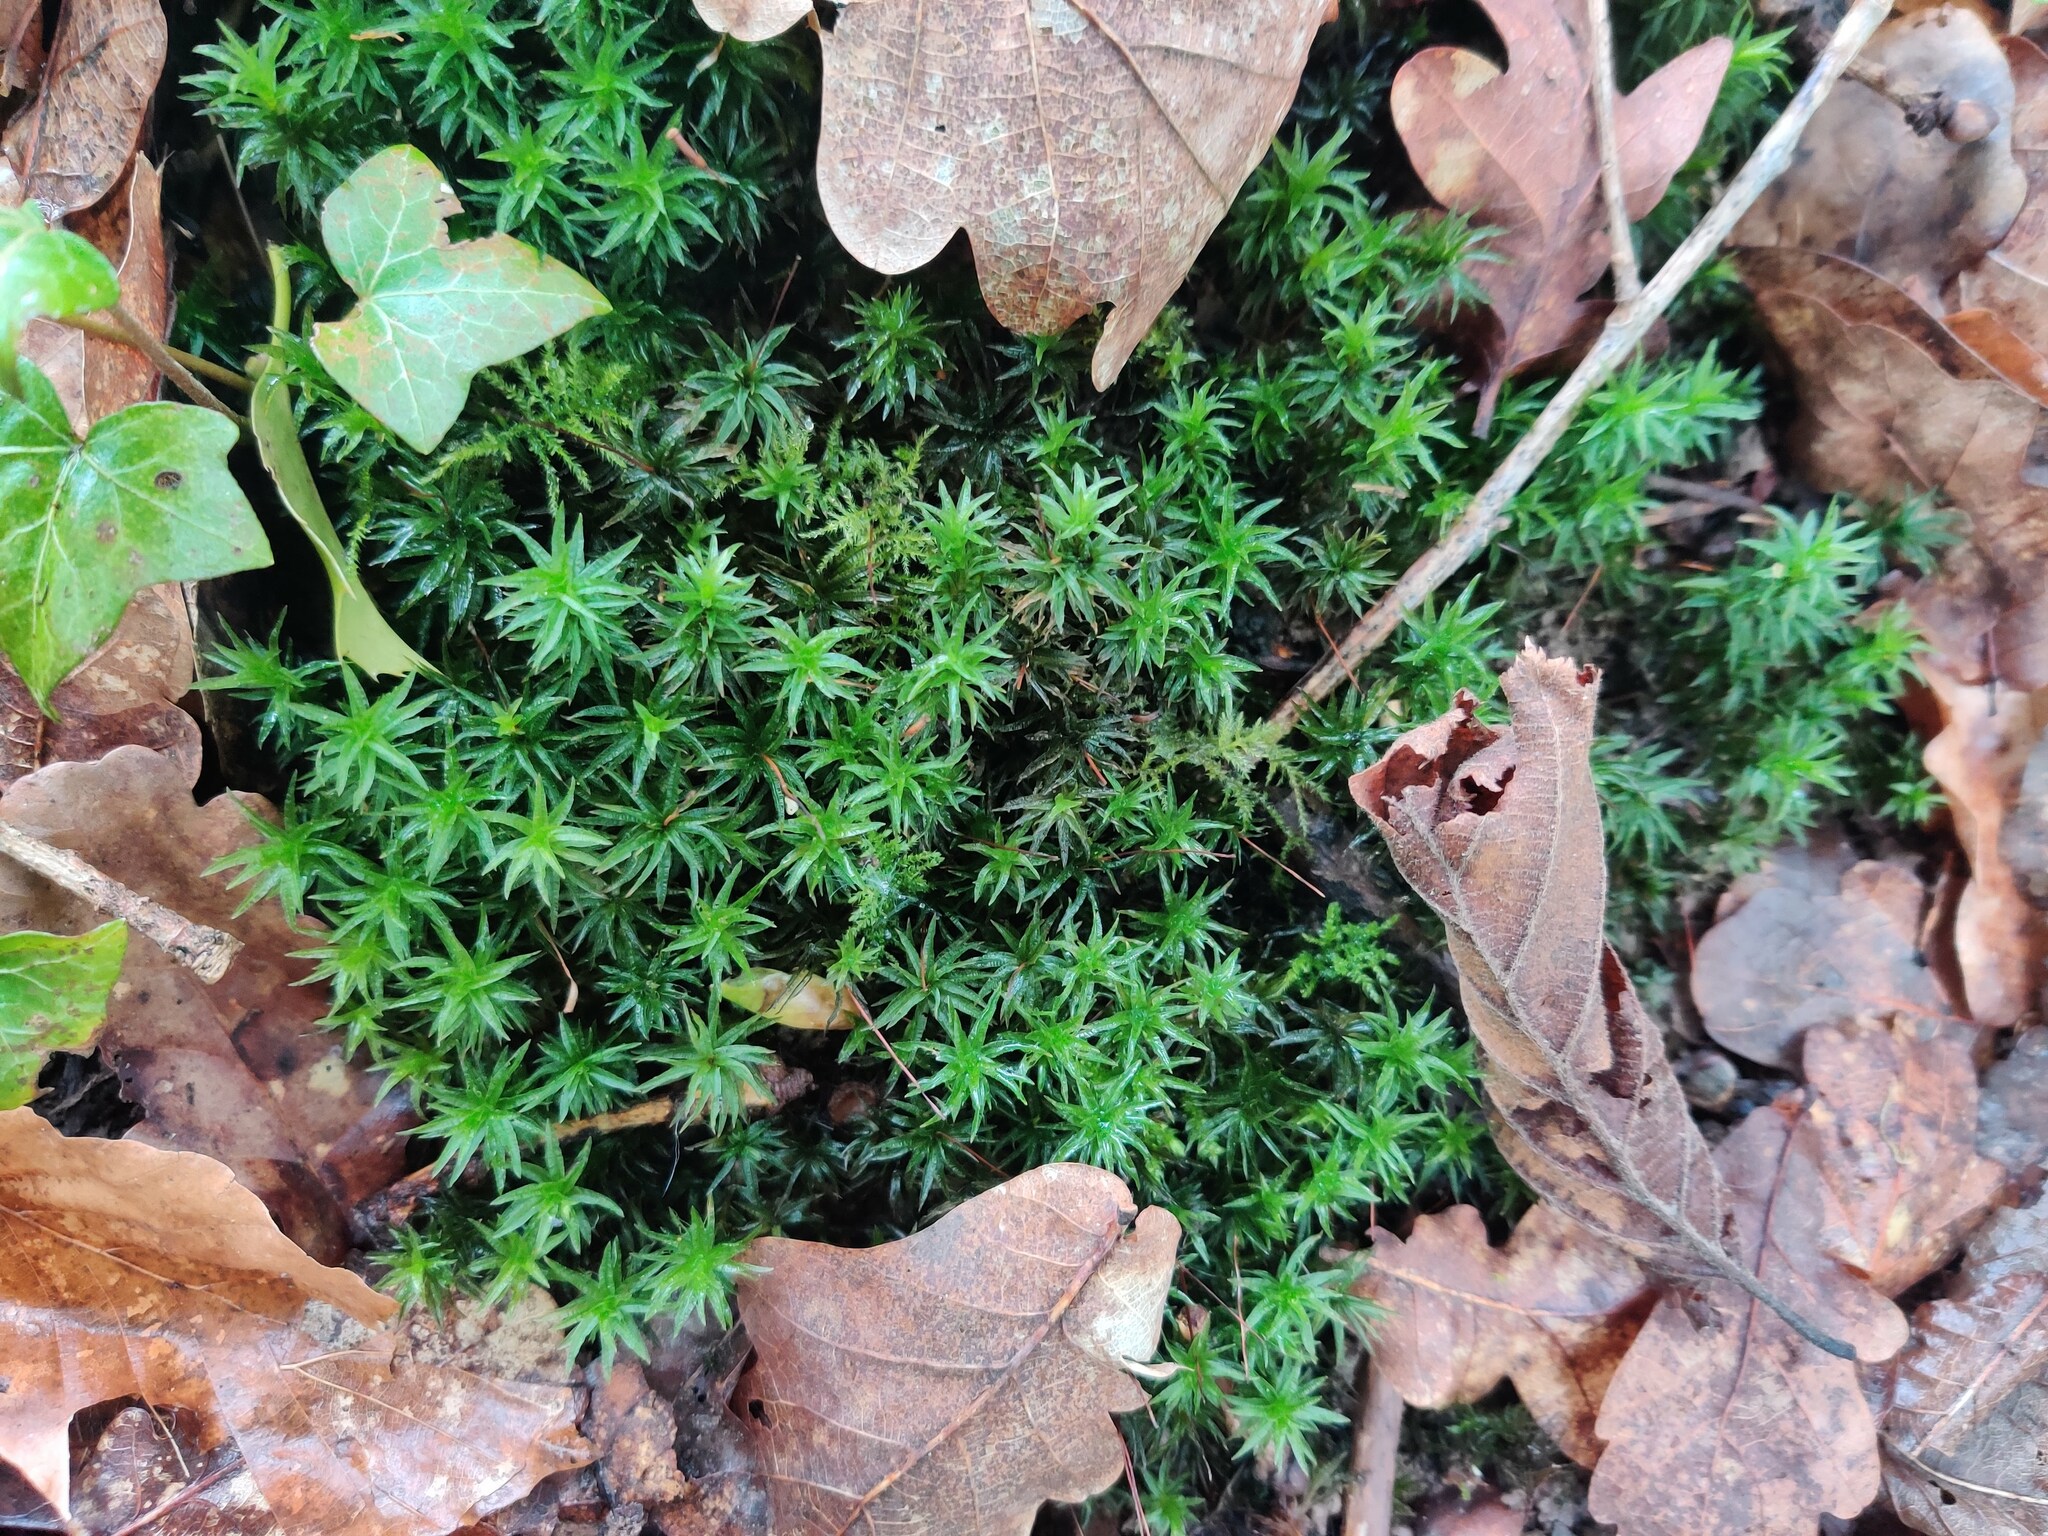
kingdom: Plantae
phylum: Bryophyta
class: Polytrichopsida
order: Polytrichales
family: Polytrichaceae
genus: Atrichum
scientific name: Atrichum undulatum
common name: Common smoothcap
